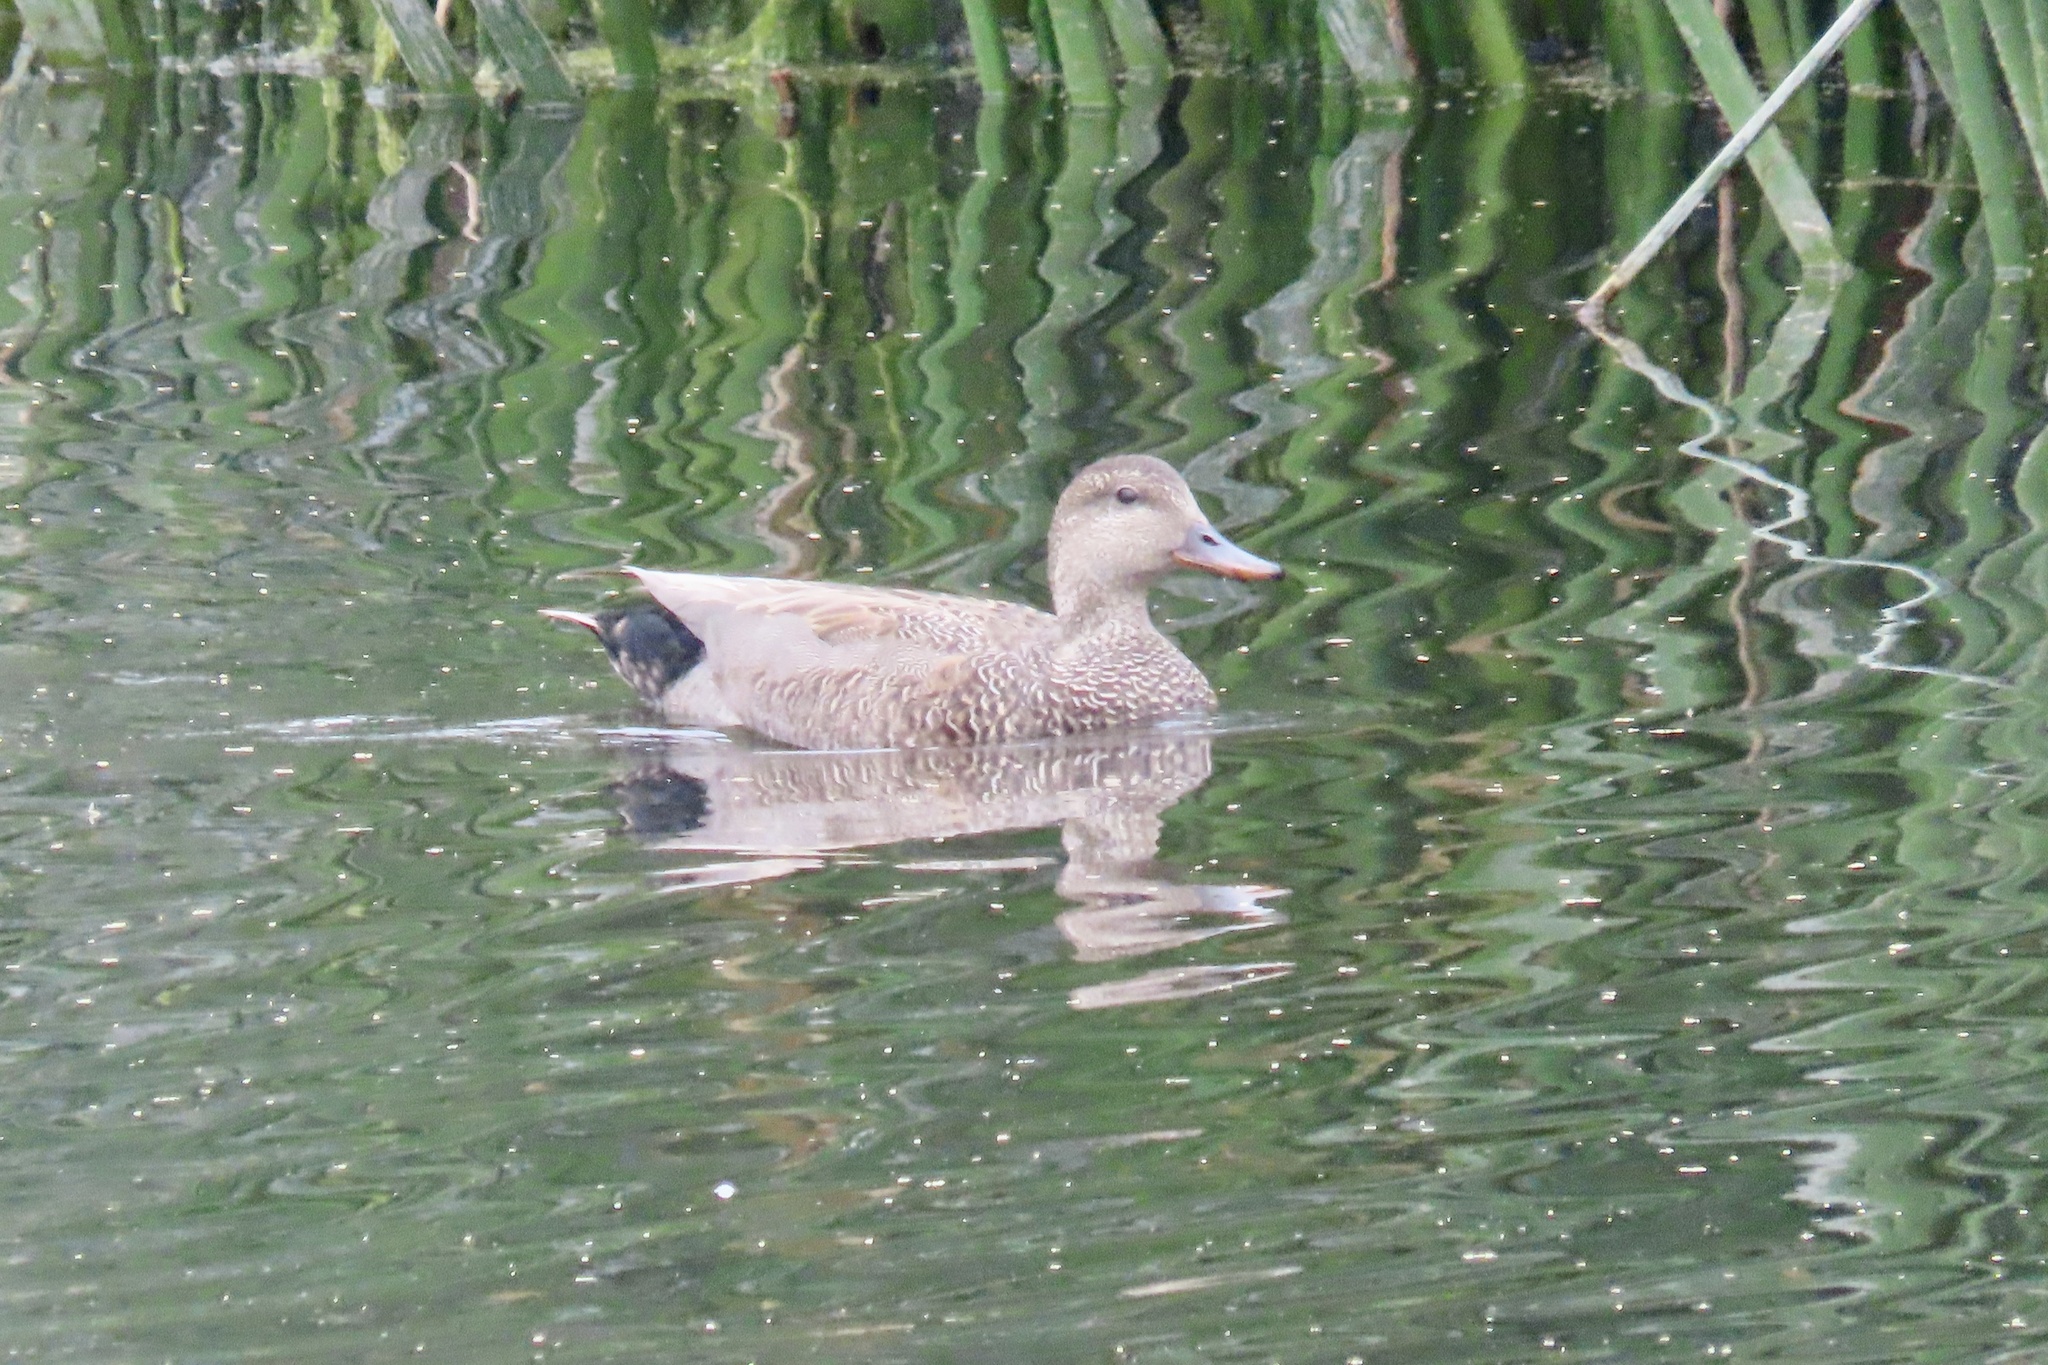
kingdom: Animalia
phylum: Chordata
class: Aves
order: Anseriformes
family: Anatidae
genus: Mareca
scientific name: Mareca strepera
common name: Gadwall
